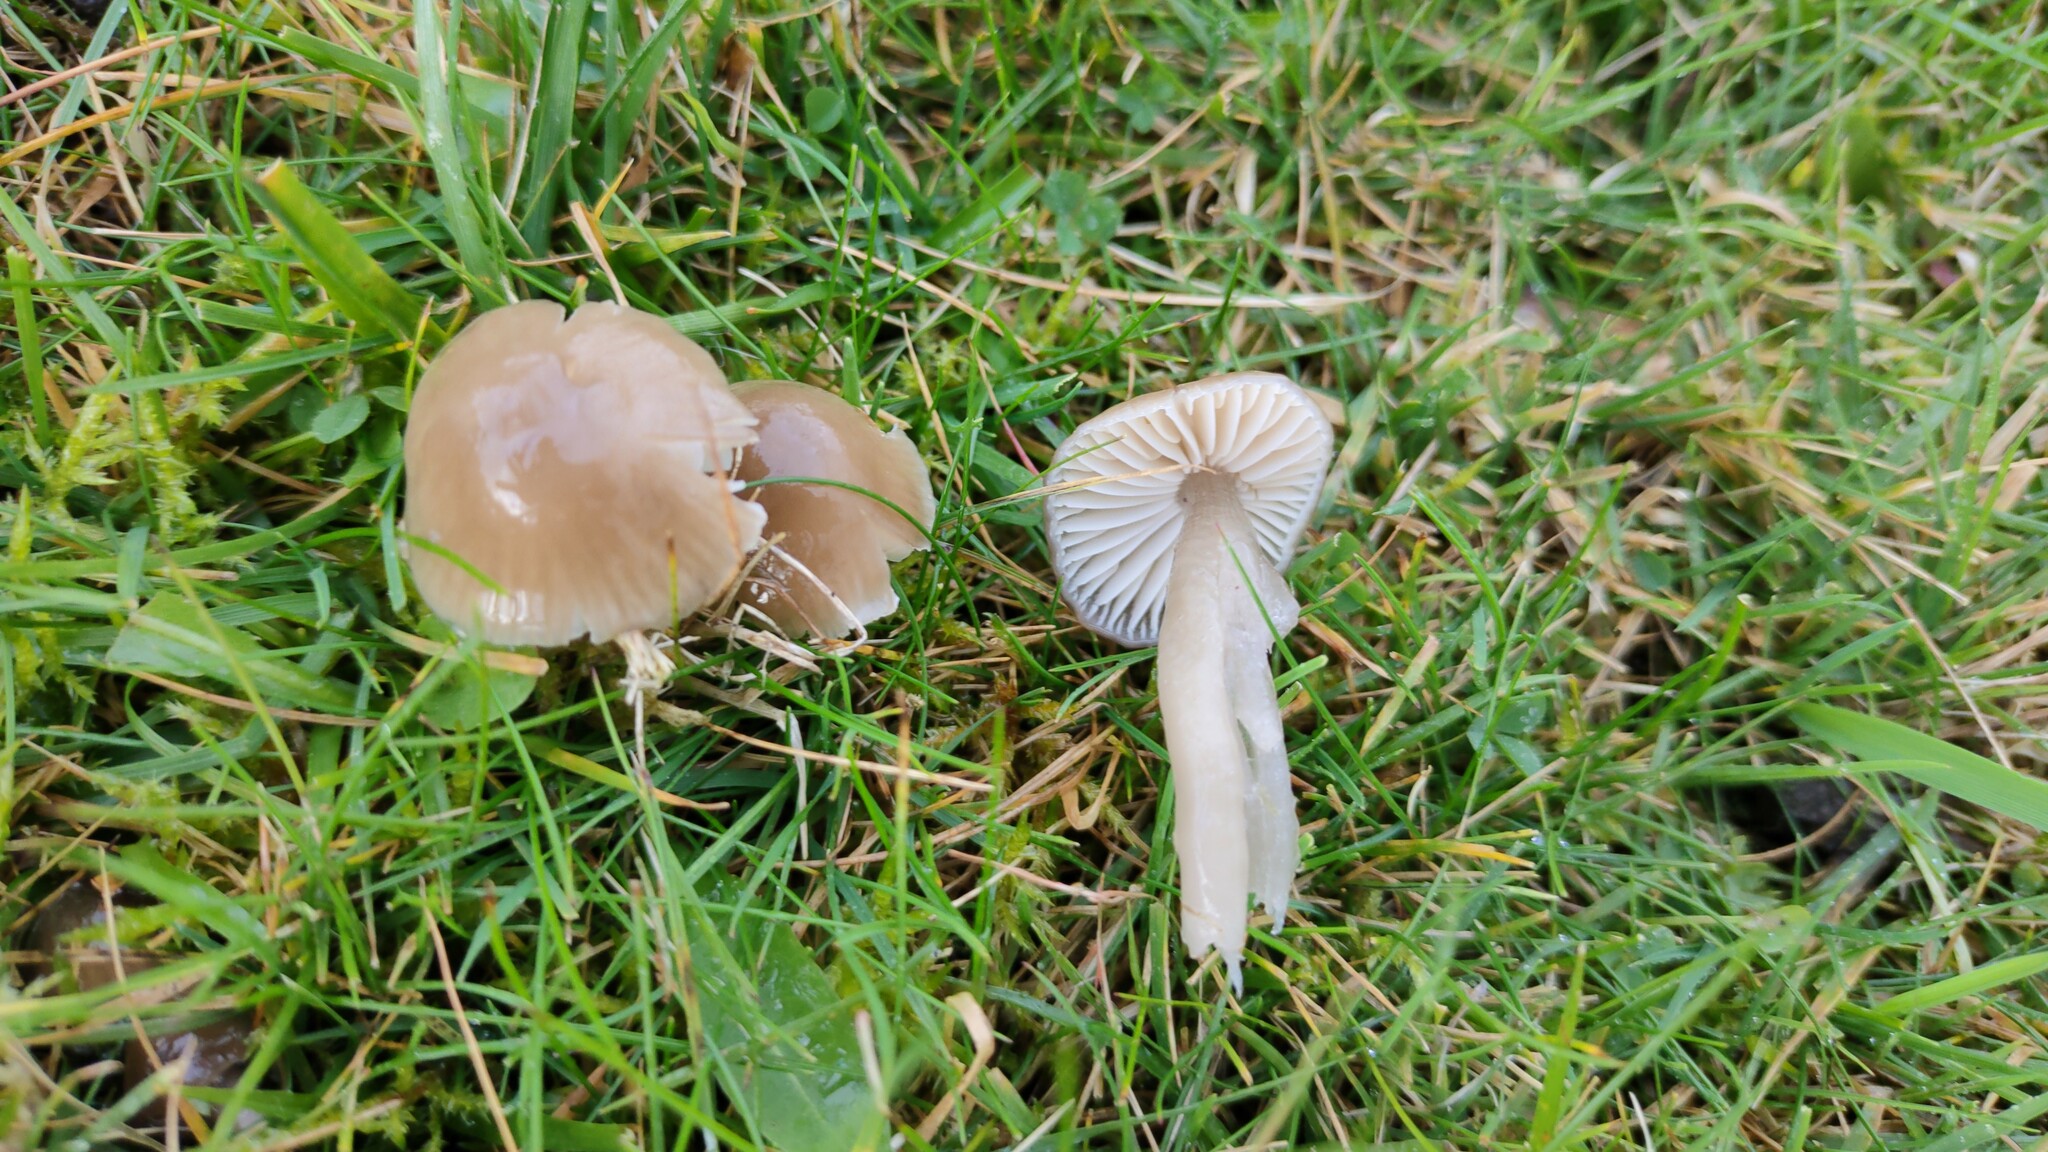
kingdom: Fungi
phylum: Basidiomycota
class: Agaricomycetes
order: Agaricales
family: Hygrophoraceae
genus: Gliophorus
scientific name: Gliophorus irrigatus
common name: Slimy waxcap
